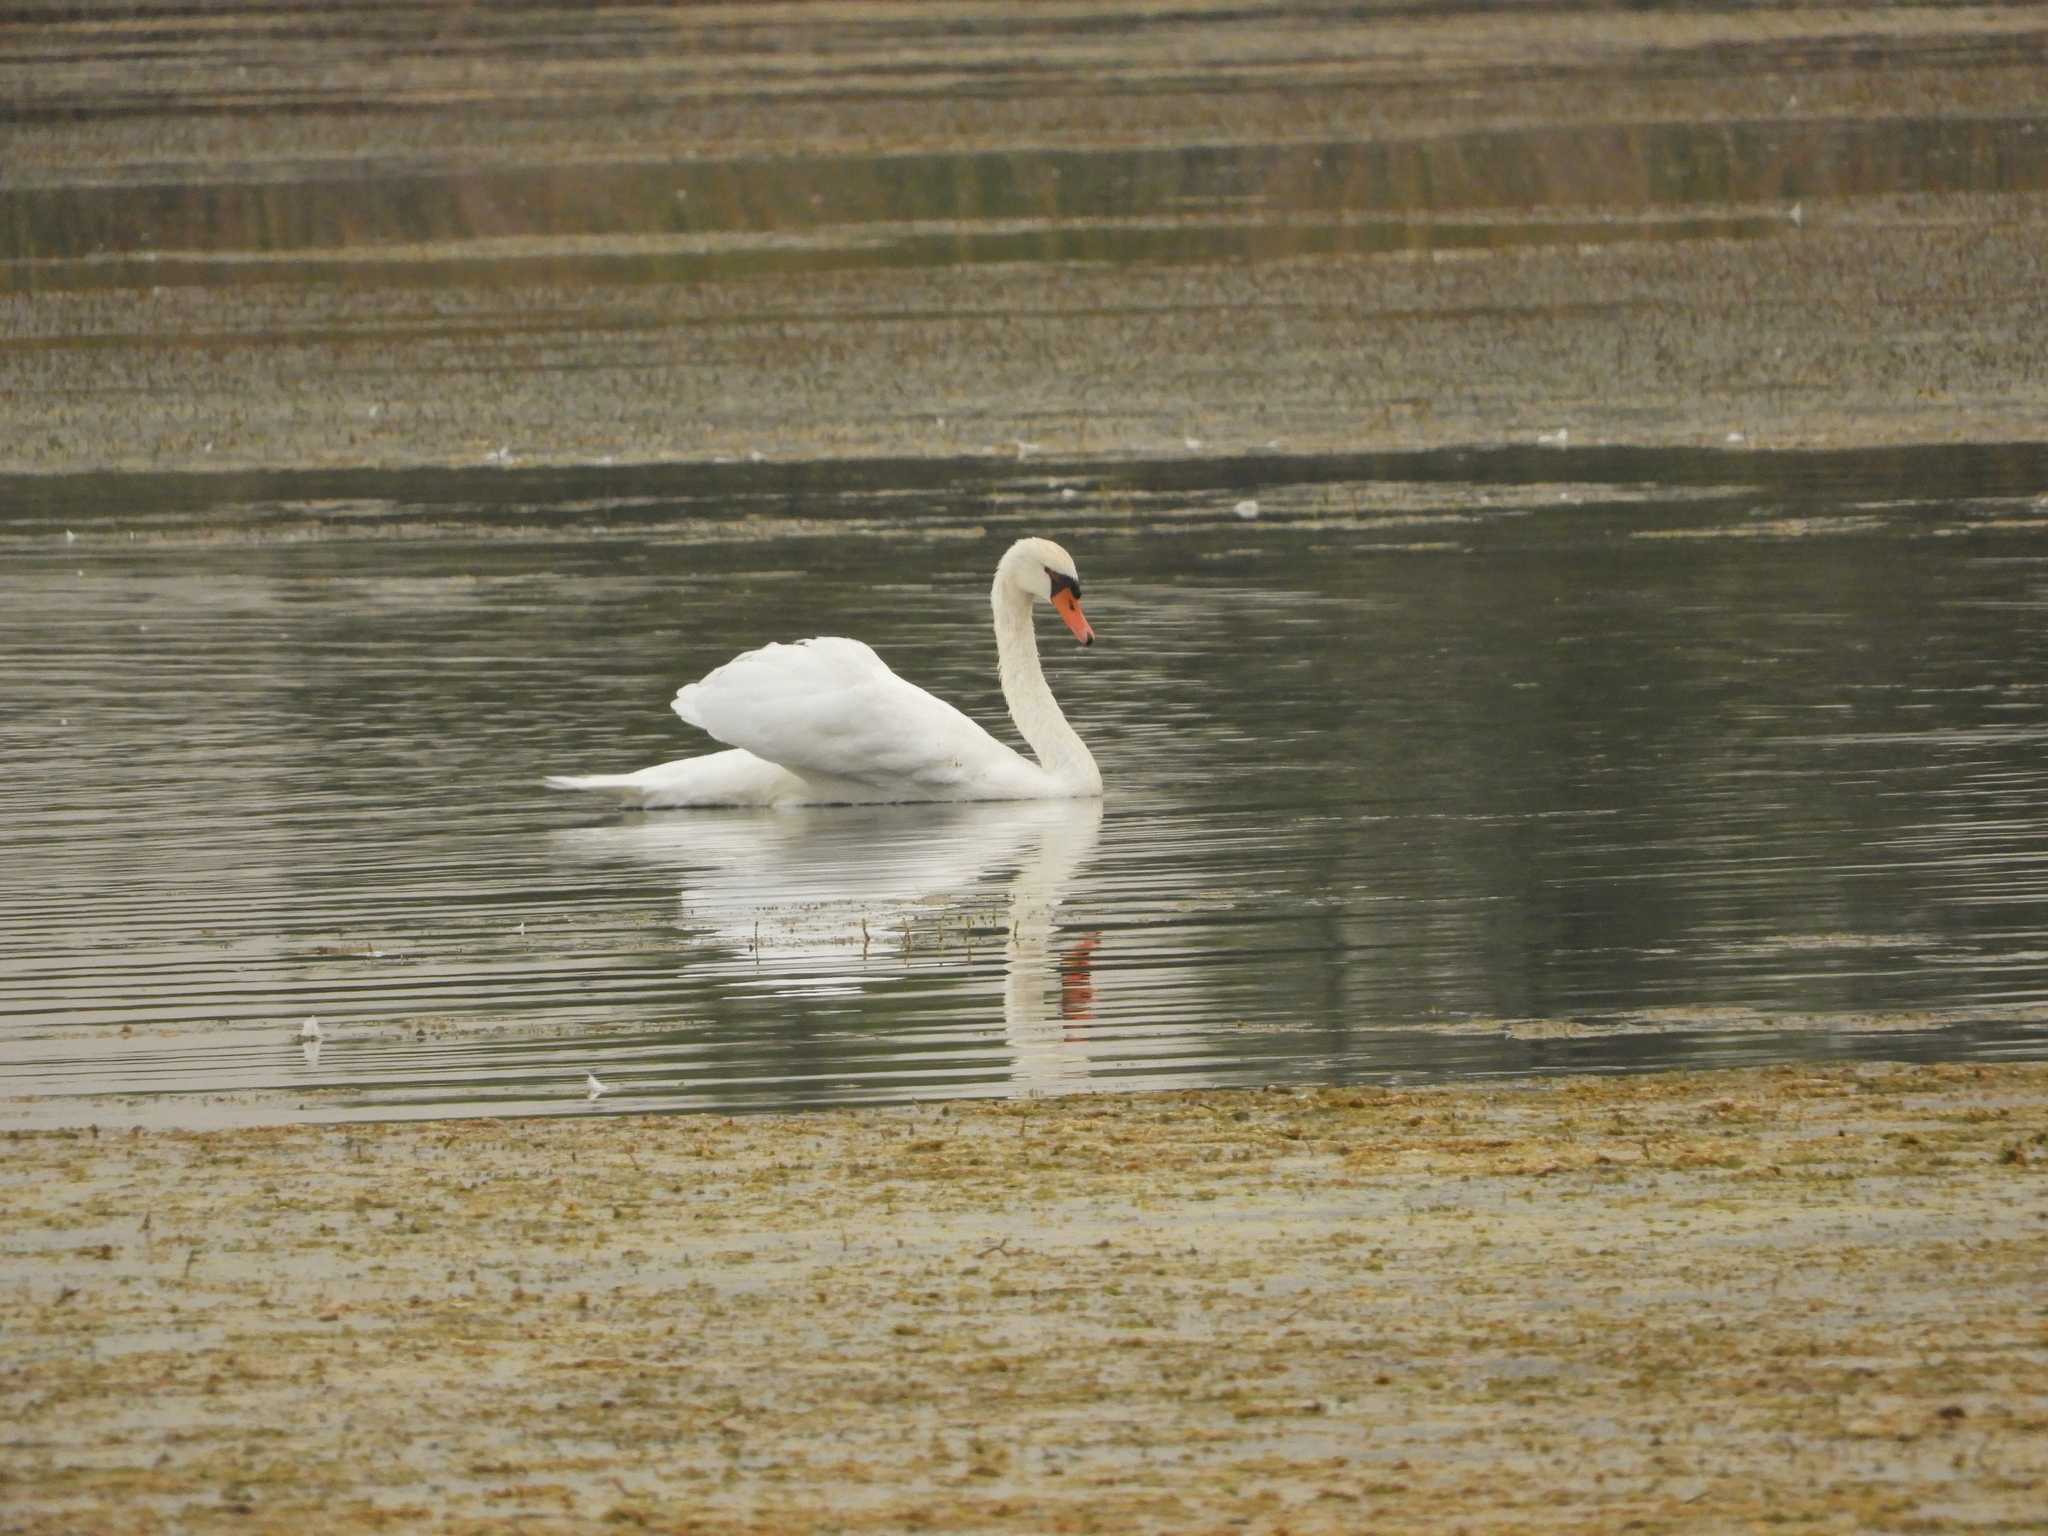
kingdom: Animalia
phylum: Chordata
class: Aves
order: Anseriformes
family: Anatidae
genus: Cygnus
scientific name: Cygnus olor
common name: Mute swan
